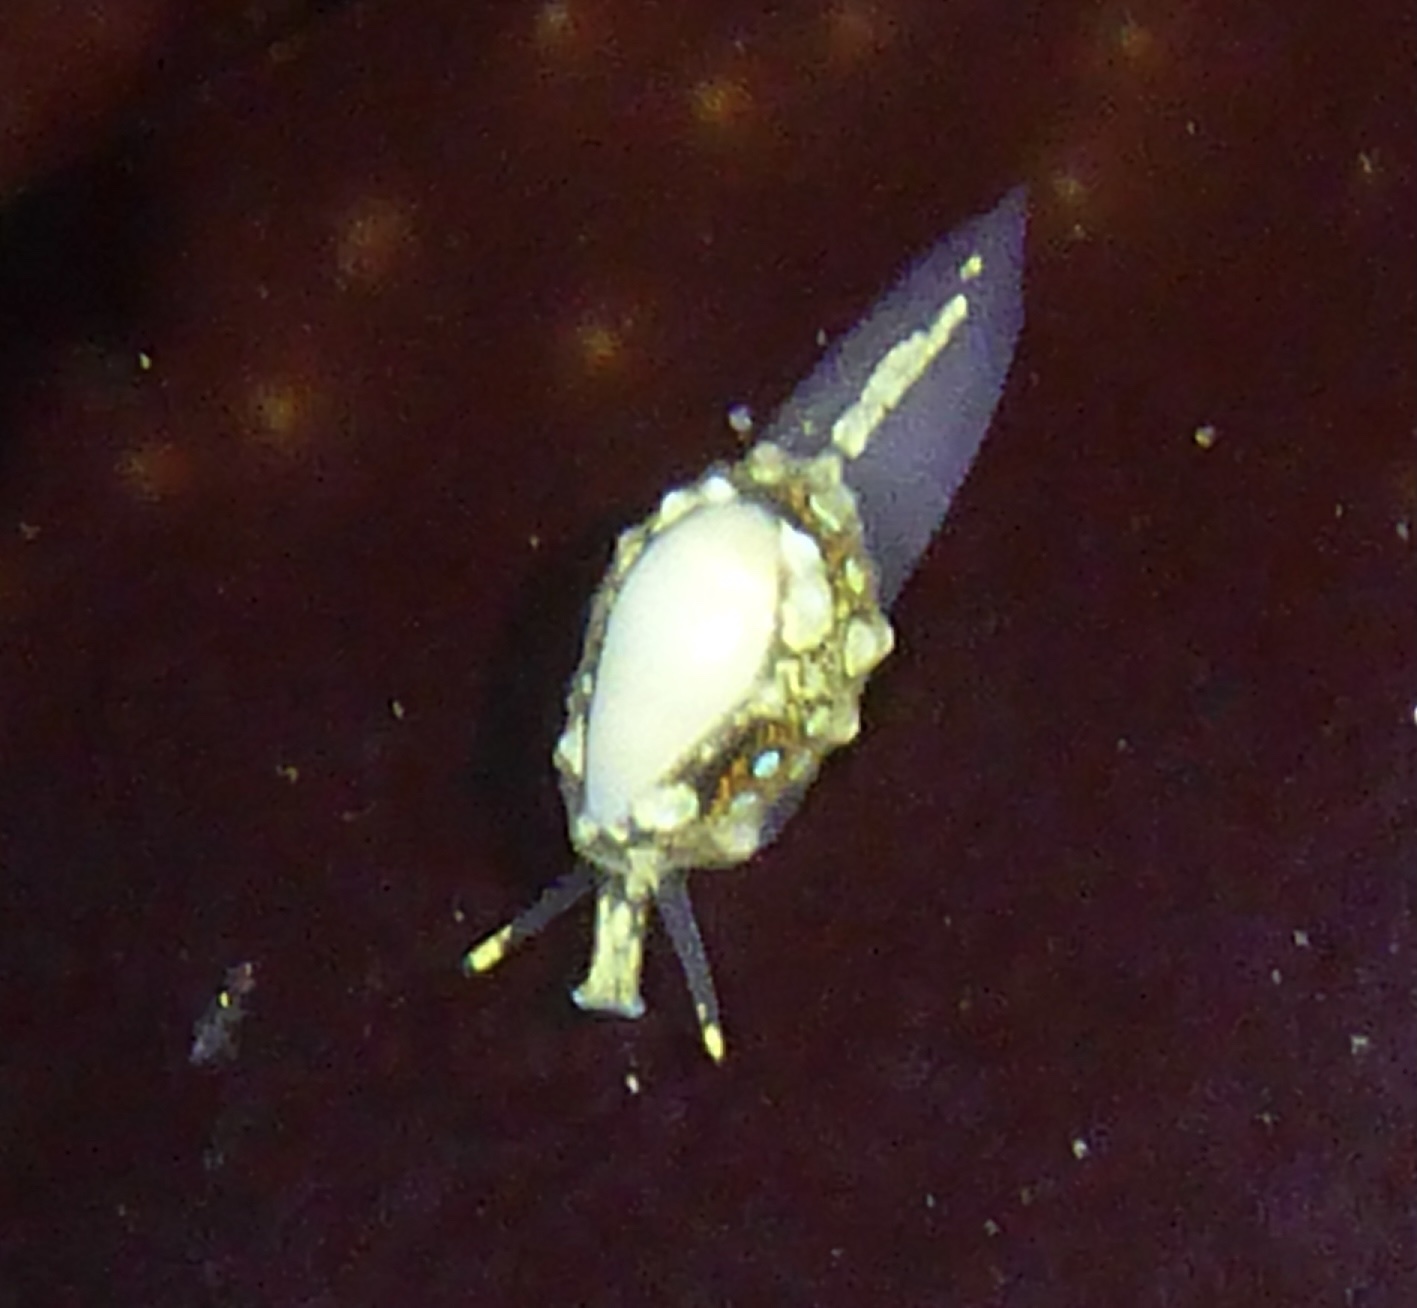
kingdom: Animalia
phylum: Mollusca
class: Gastropoda
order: Neogastropoda
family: Granulinidae
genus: Granulina
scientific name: Granulina margaritula
